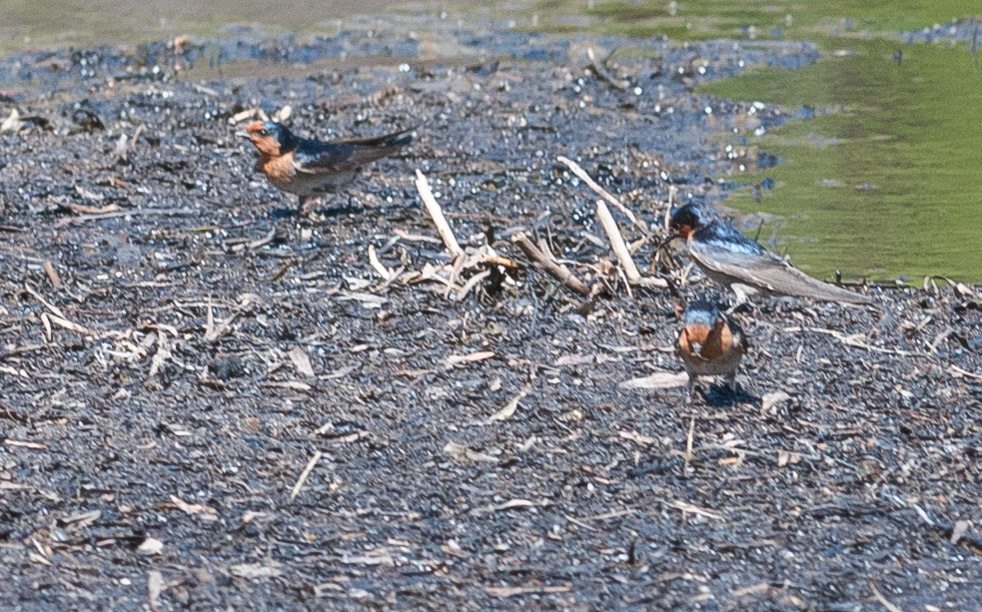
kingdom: Animalia
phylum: Chordata
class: Aves
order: Passeriformes
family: Hirundinidae
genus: Hirundo
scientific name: Hirundo neoxena
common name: Welcome swallow
